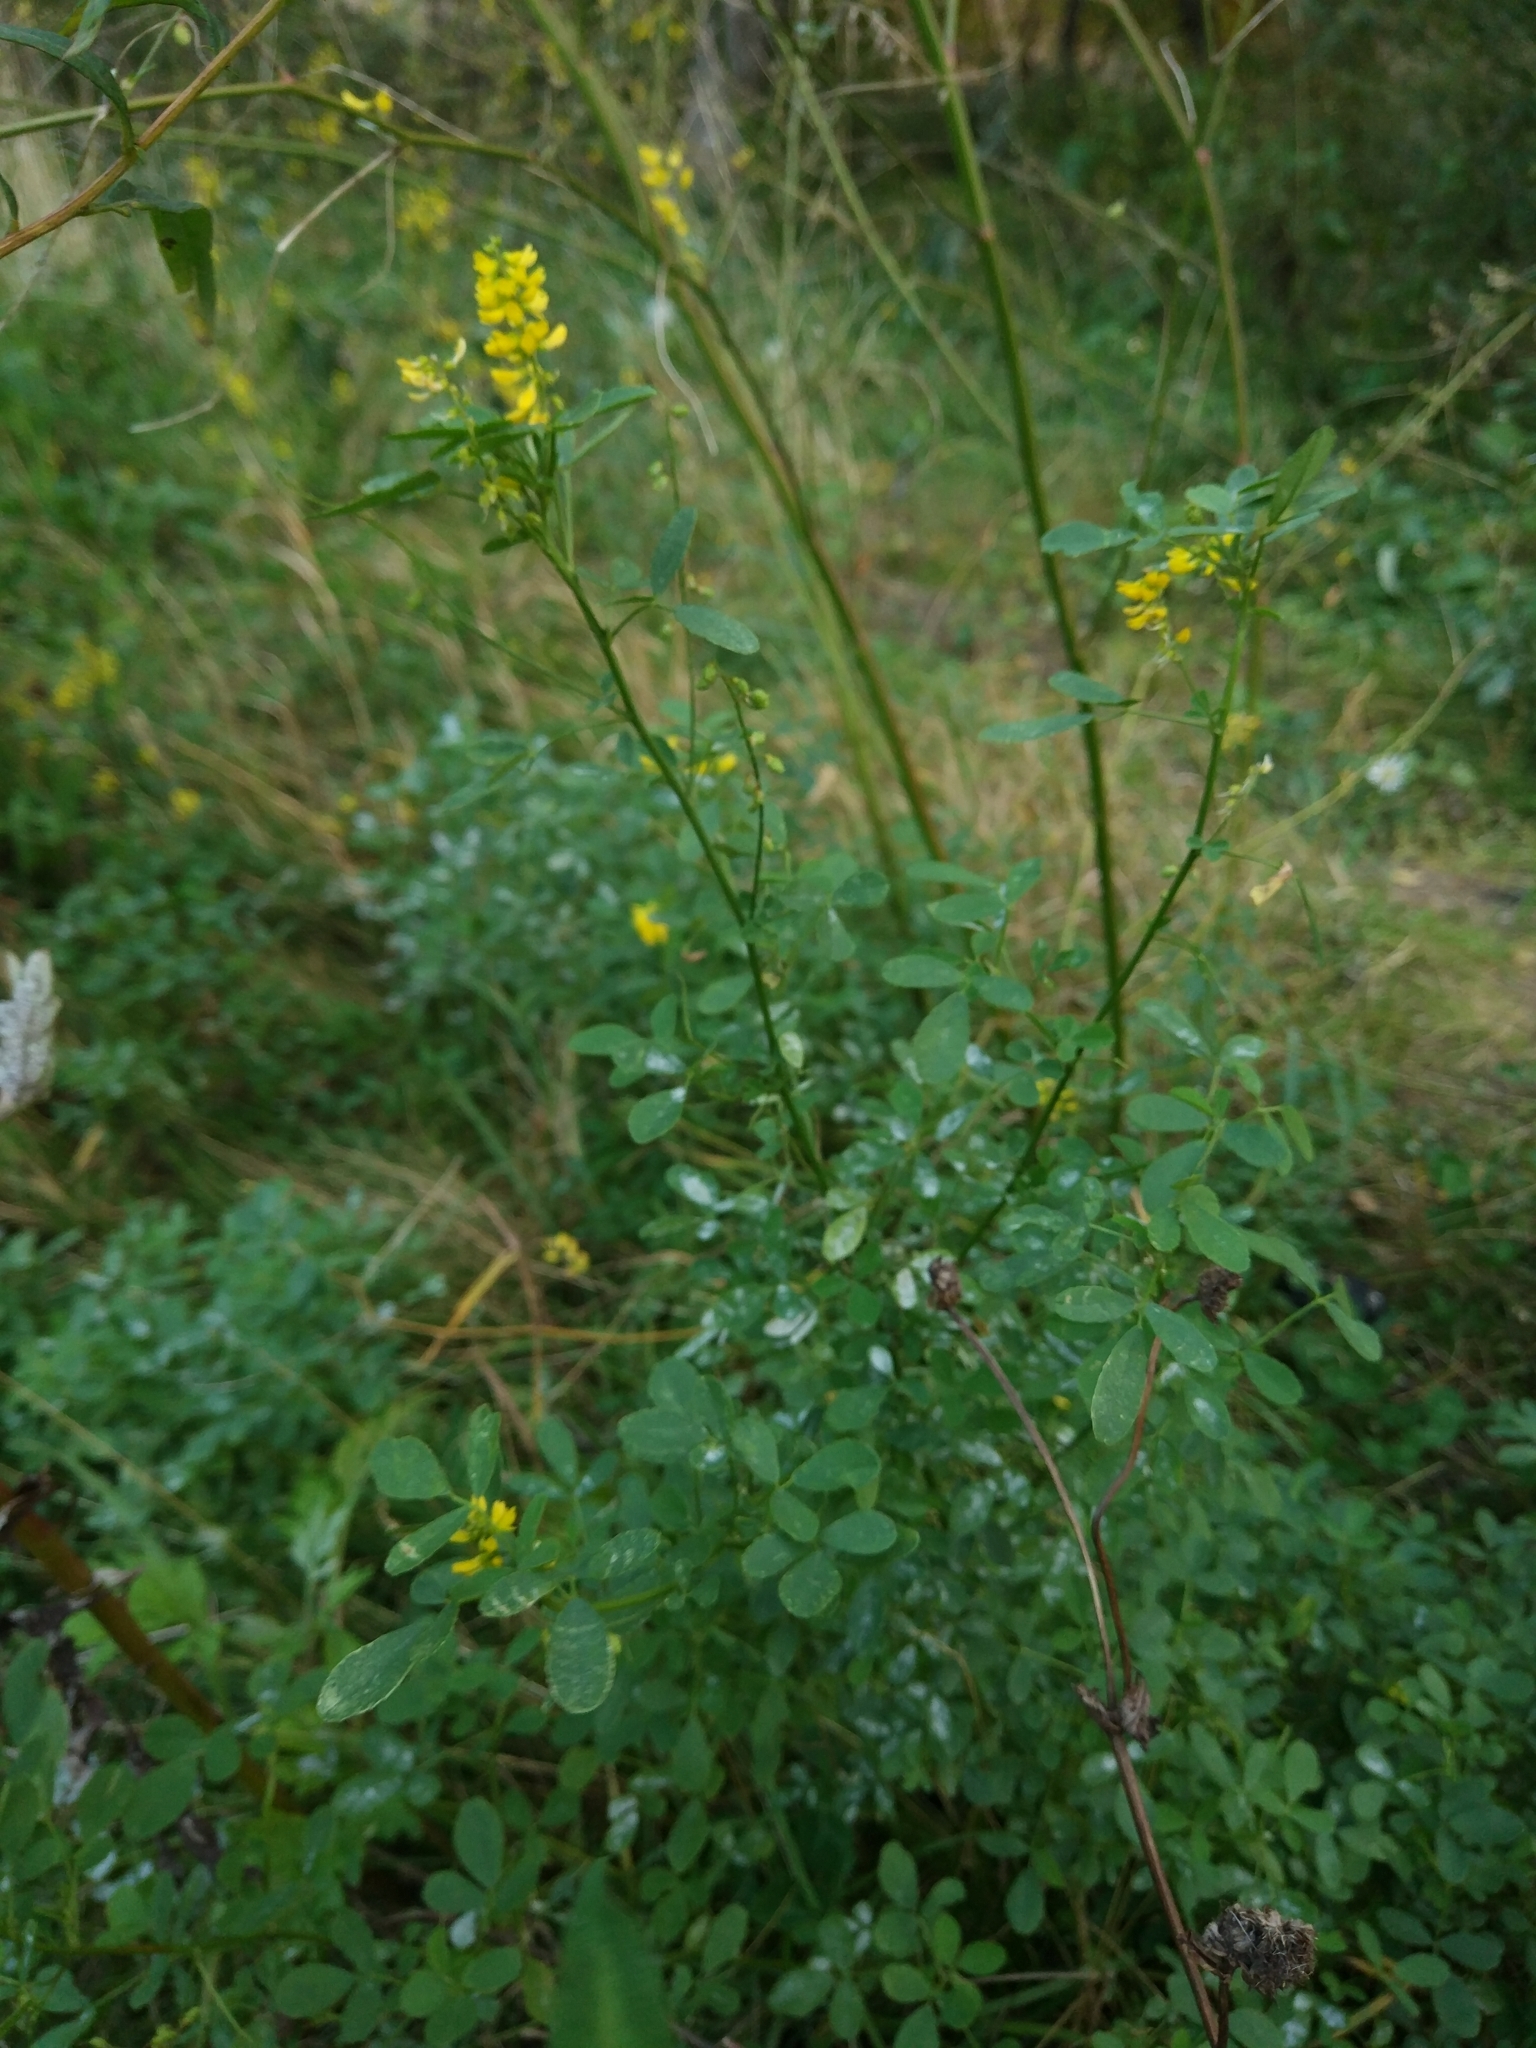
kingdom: Plantae
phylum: Tracheophyta
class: Magnoliopsida
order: Fabales
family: Fabaceae
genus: Melilotus
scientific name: Melilotus officinalis
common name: Sweetclover
